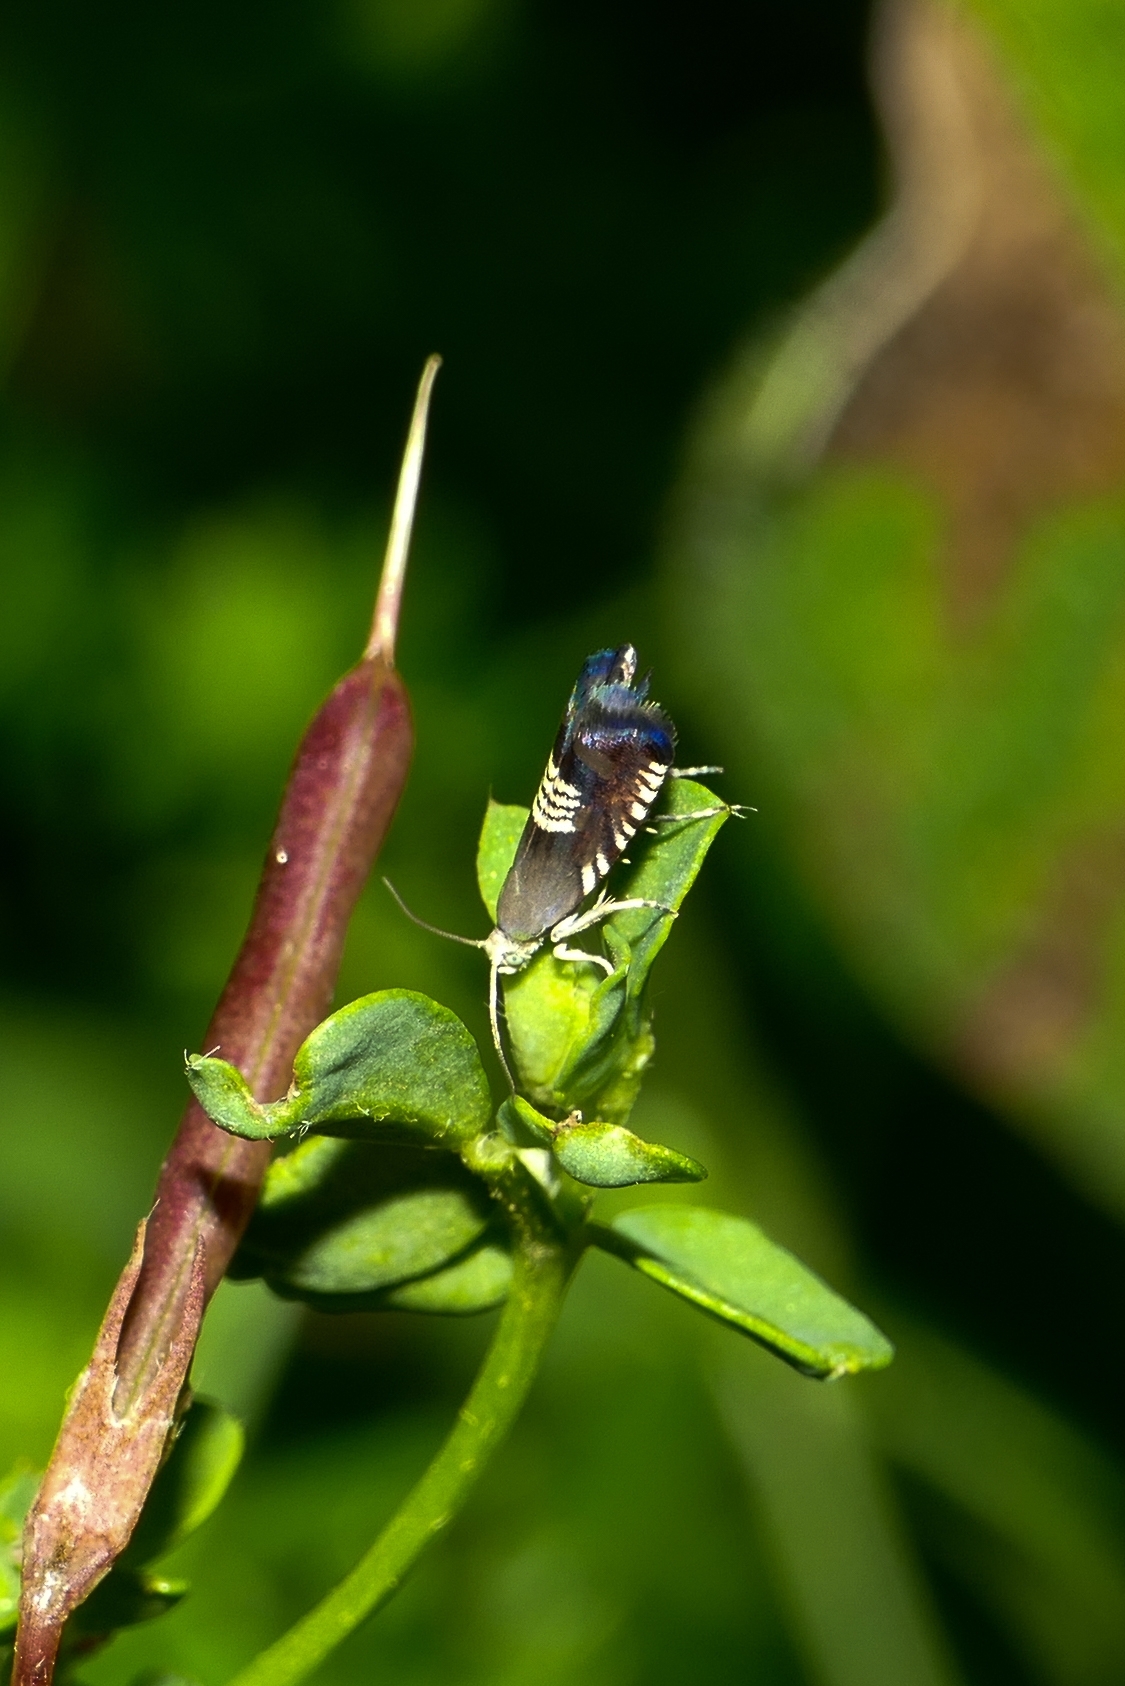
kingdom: Animalia
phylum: Arthropoda
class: Insecta
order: Lepidoptera
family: Tortricidae
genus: Grapholita
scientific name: Grapholita compositella
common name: Triple-stripe piercer
